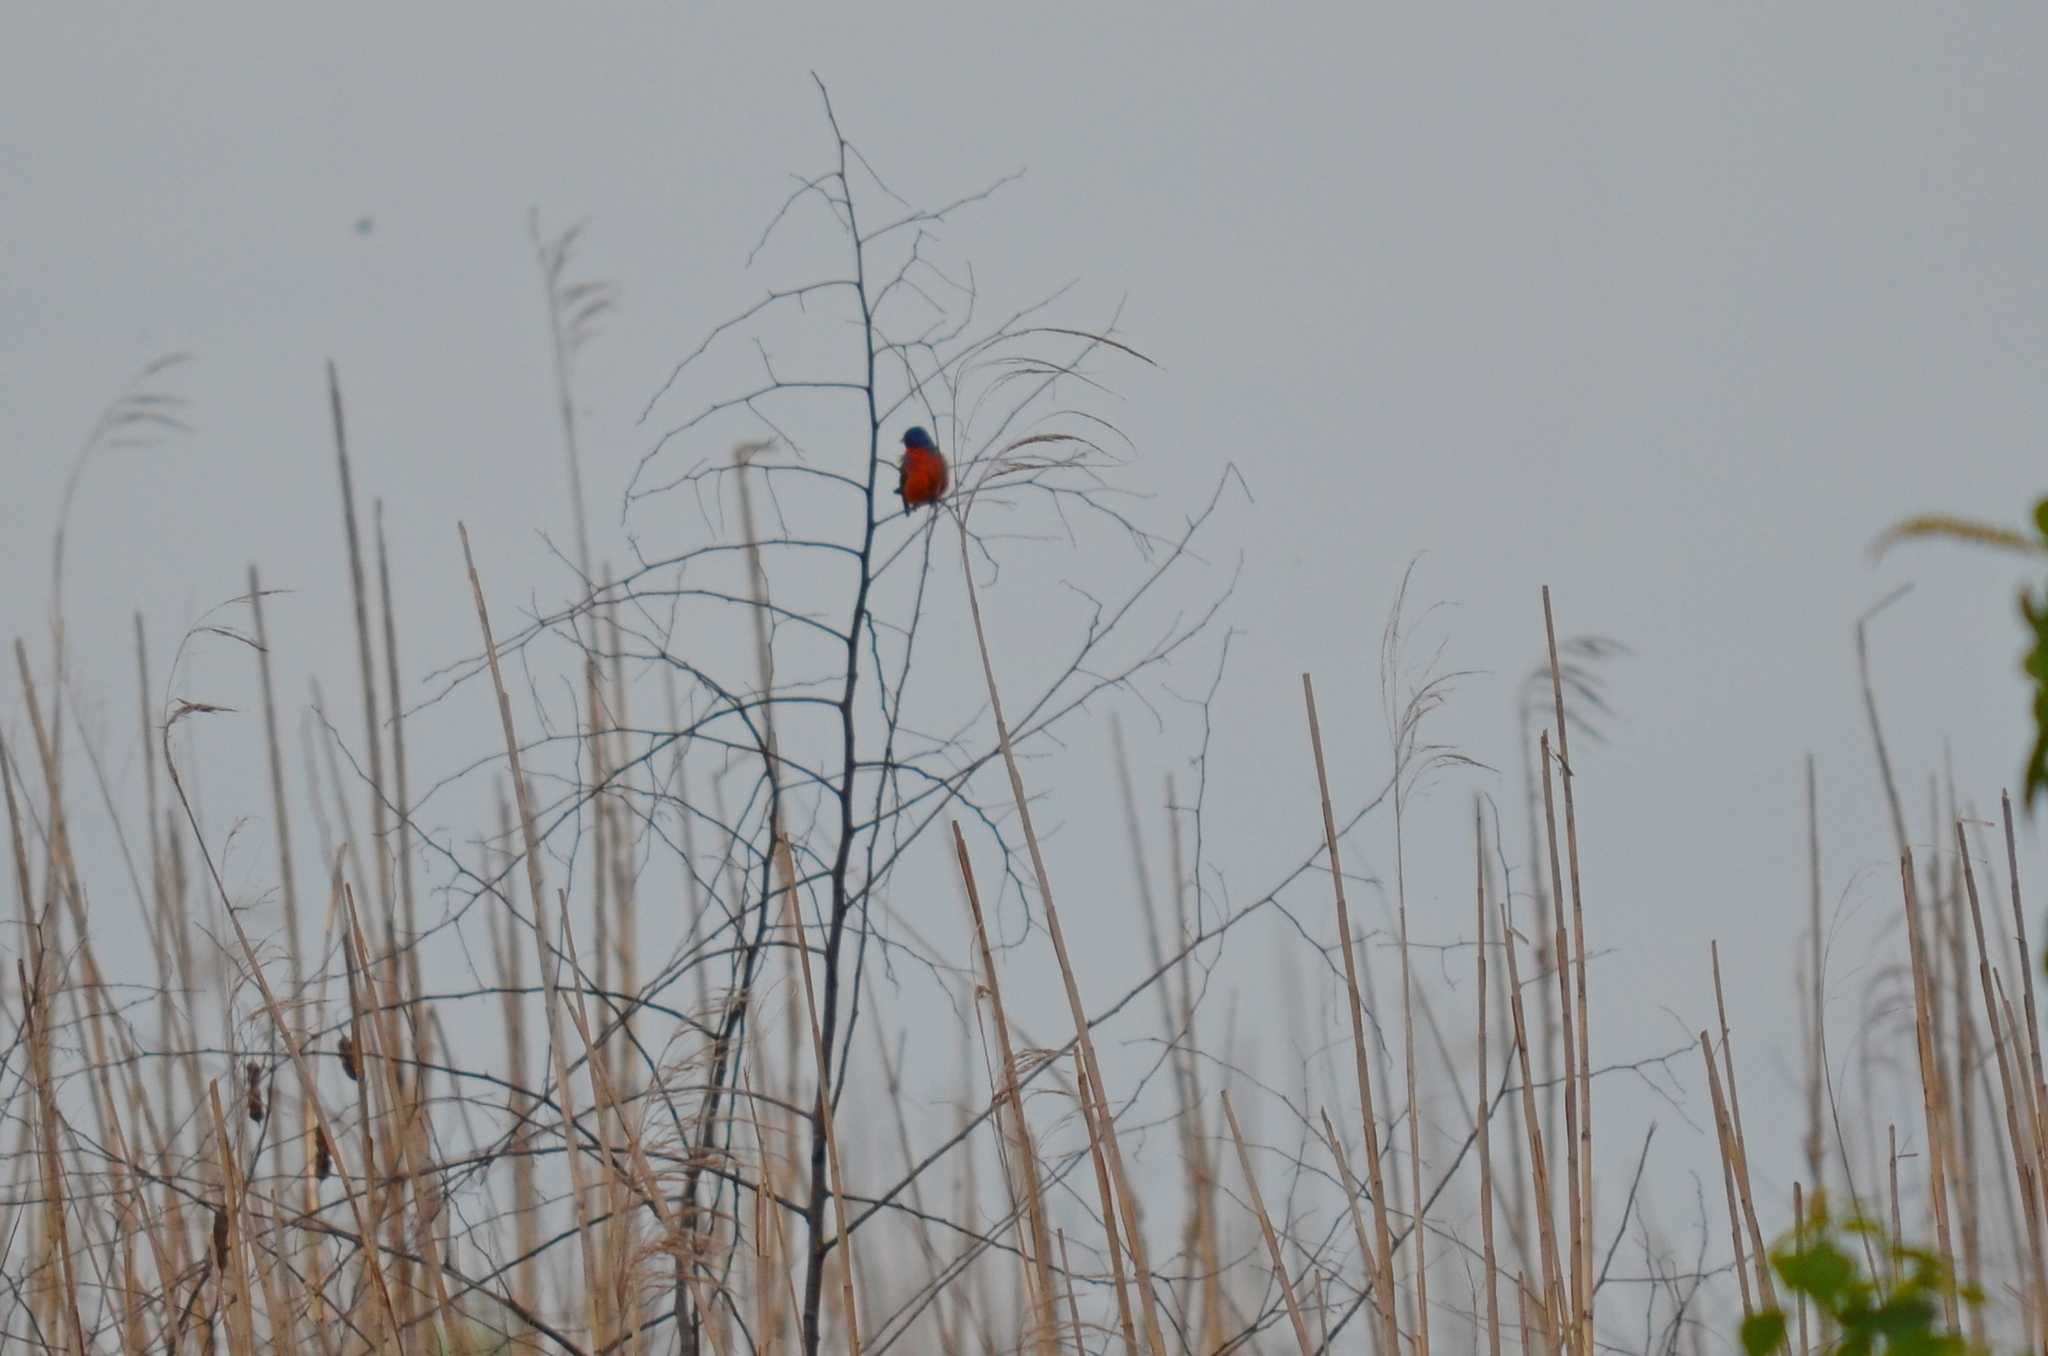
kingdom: Animalia
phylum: Chordata
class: Aves
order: Passeriformes
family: Cardinalidae
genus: Passerina
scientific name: Passerina ciris
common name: Painted bunting
